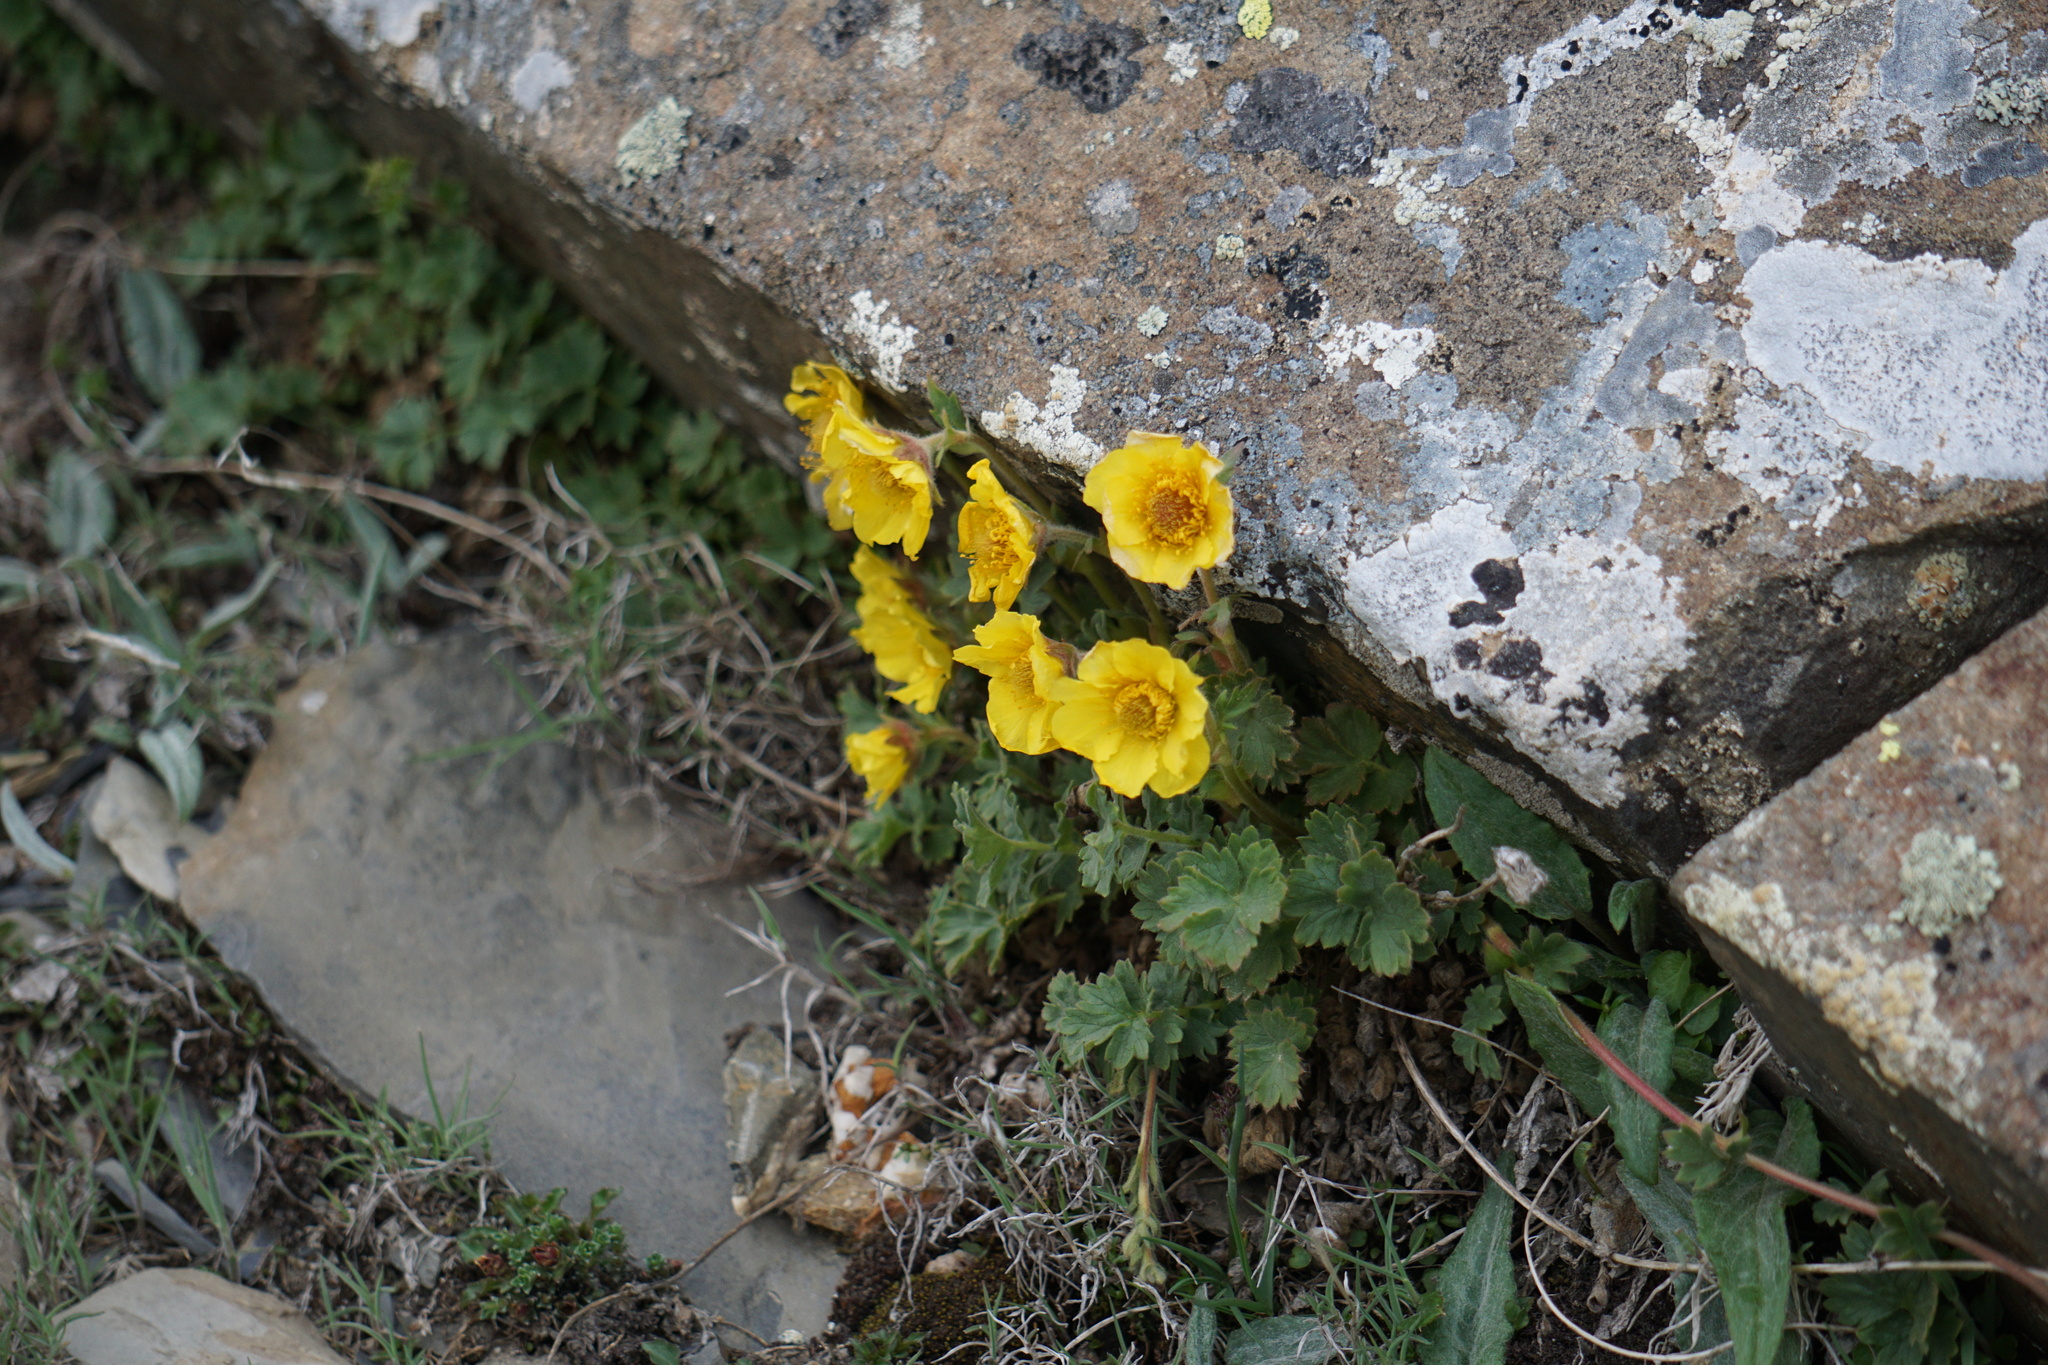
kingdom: Plantae
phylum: Tracheophyta
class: Magnoliopsida
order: Rosales
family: Rosaceae
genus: Geum
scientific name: Geum montanum
